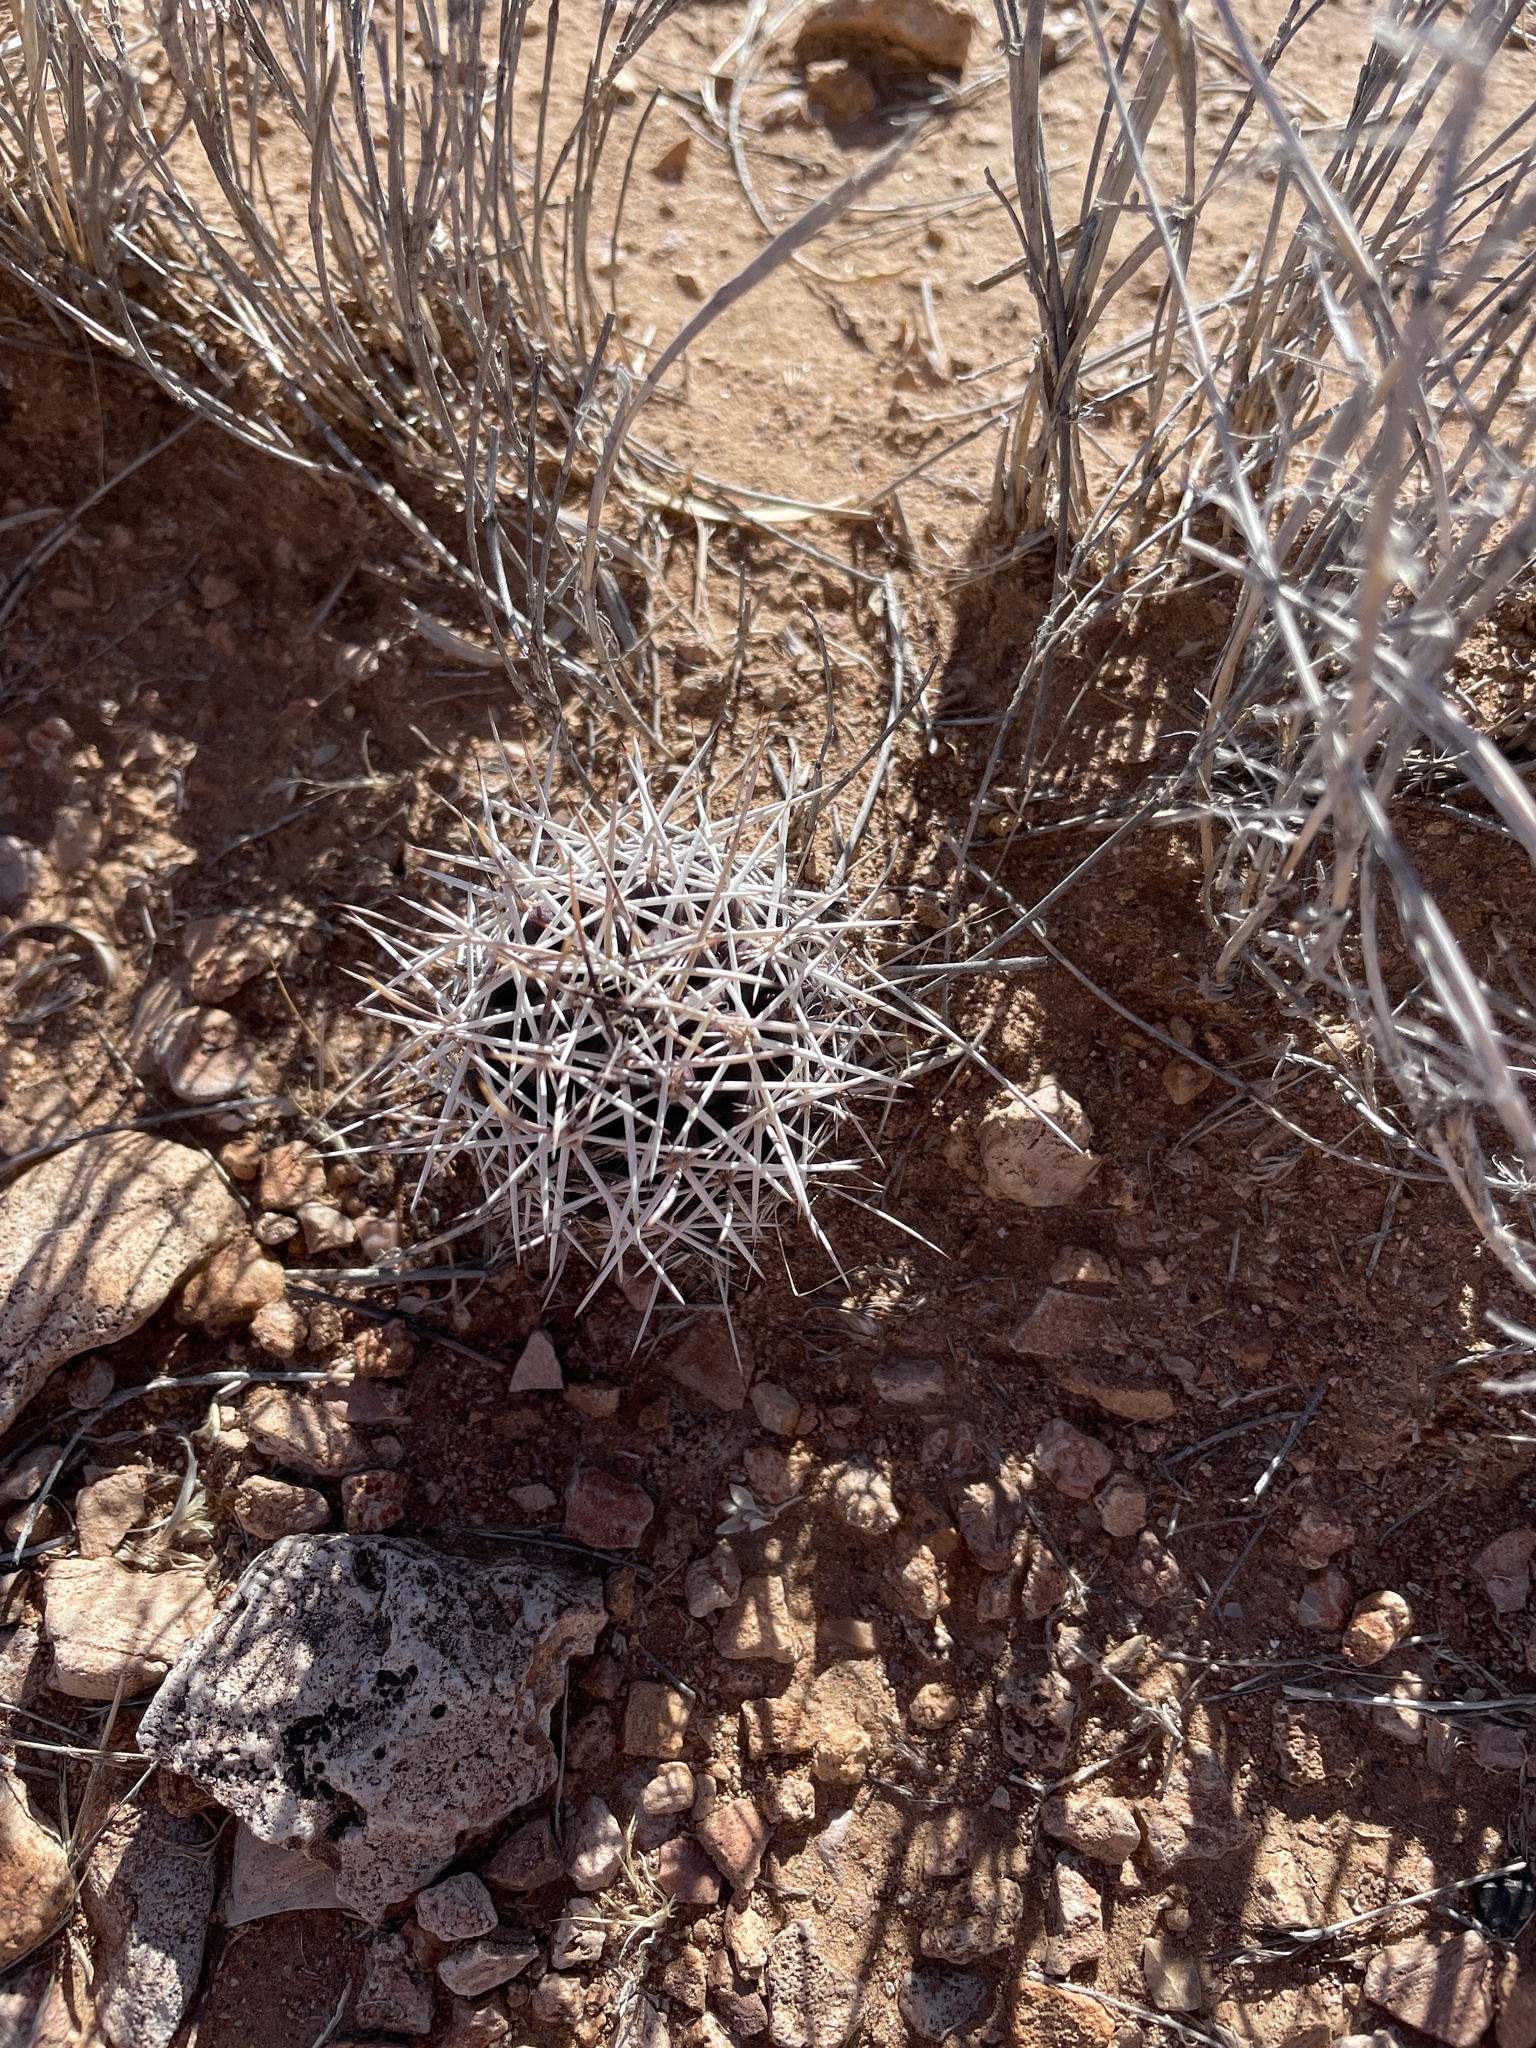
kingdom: Plantae
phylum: Tracheophyta
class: Magnoliopsida
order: Caryophyllales
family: Cactaceae
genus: Echinocereus
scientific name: Echinocereus fendleri
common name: Fendler's hedgehog cactus
